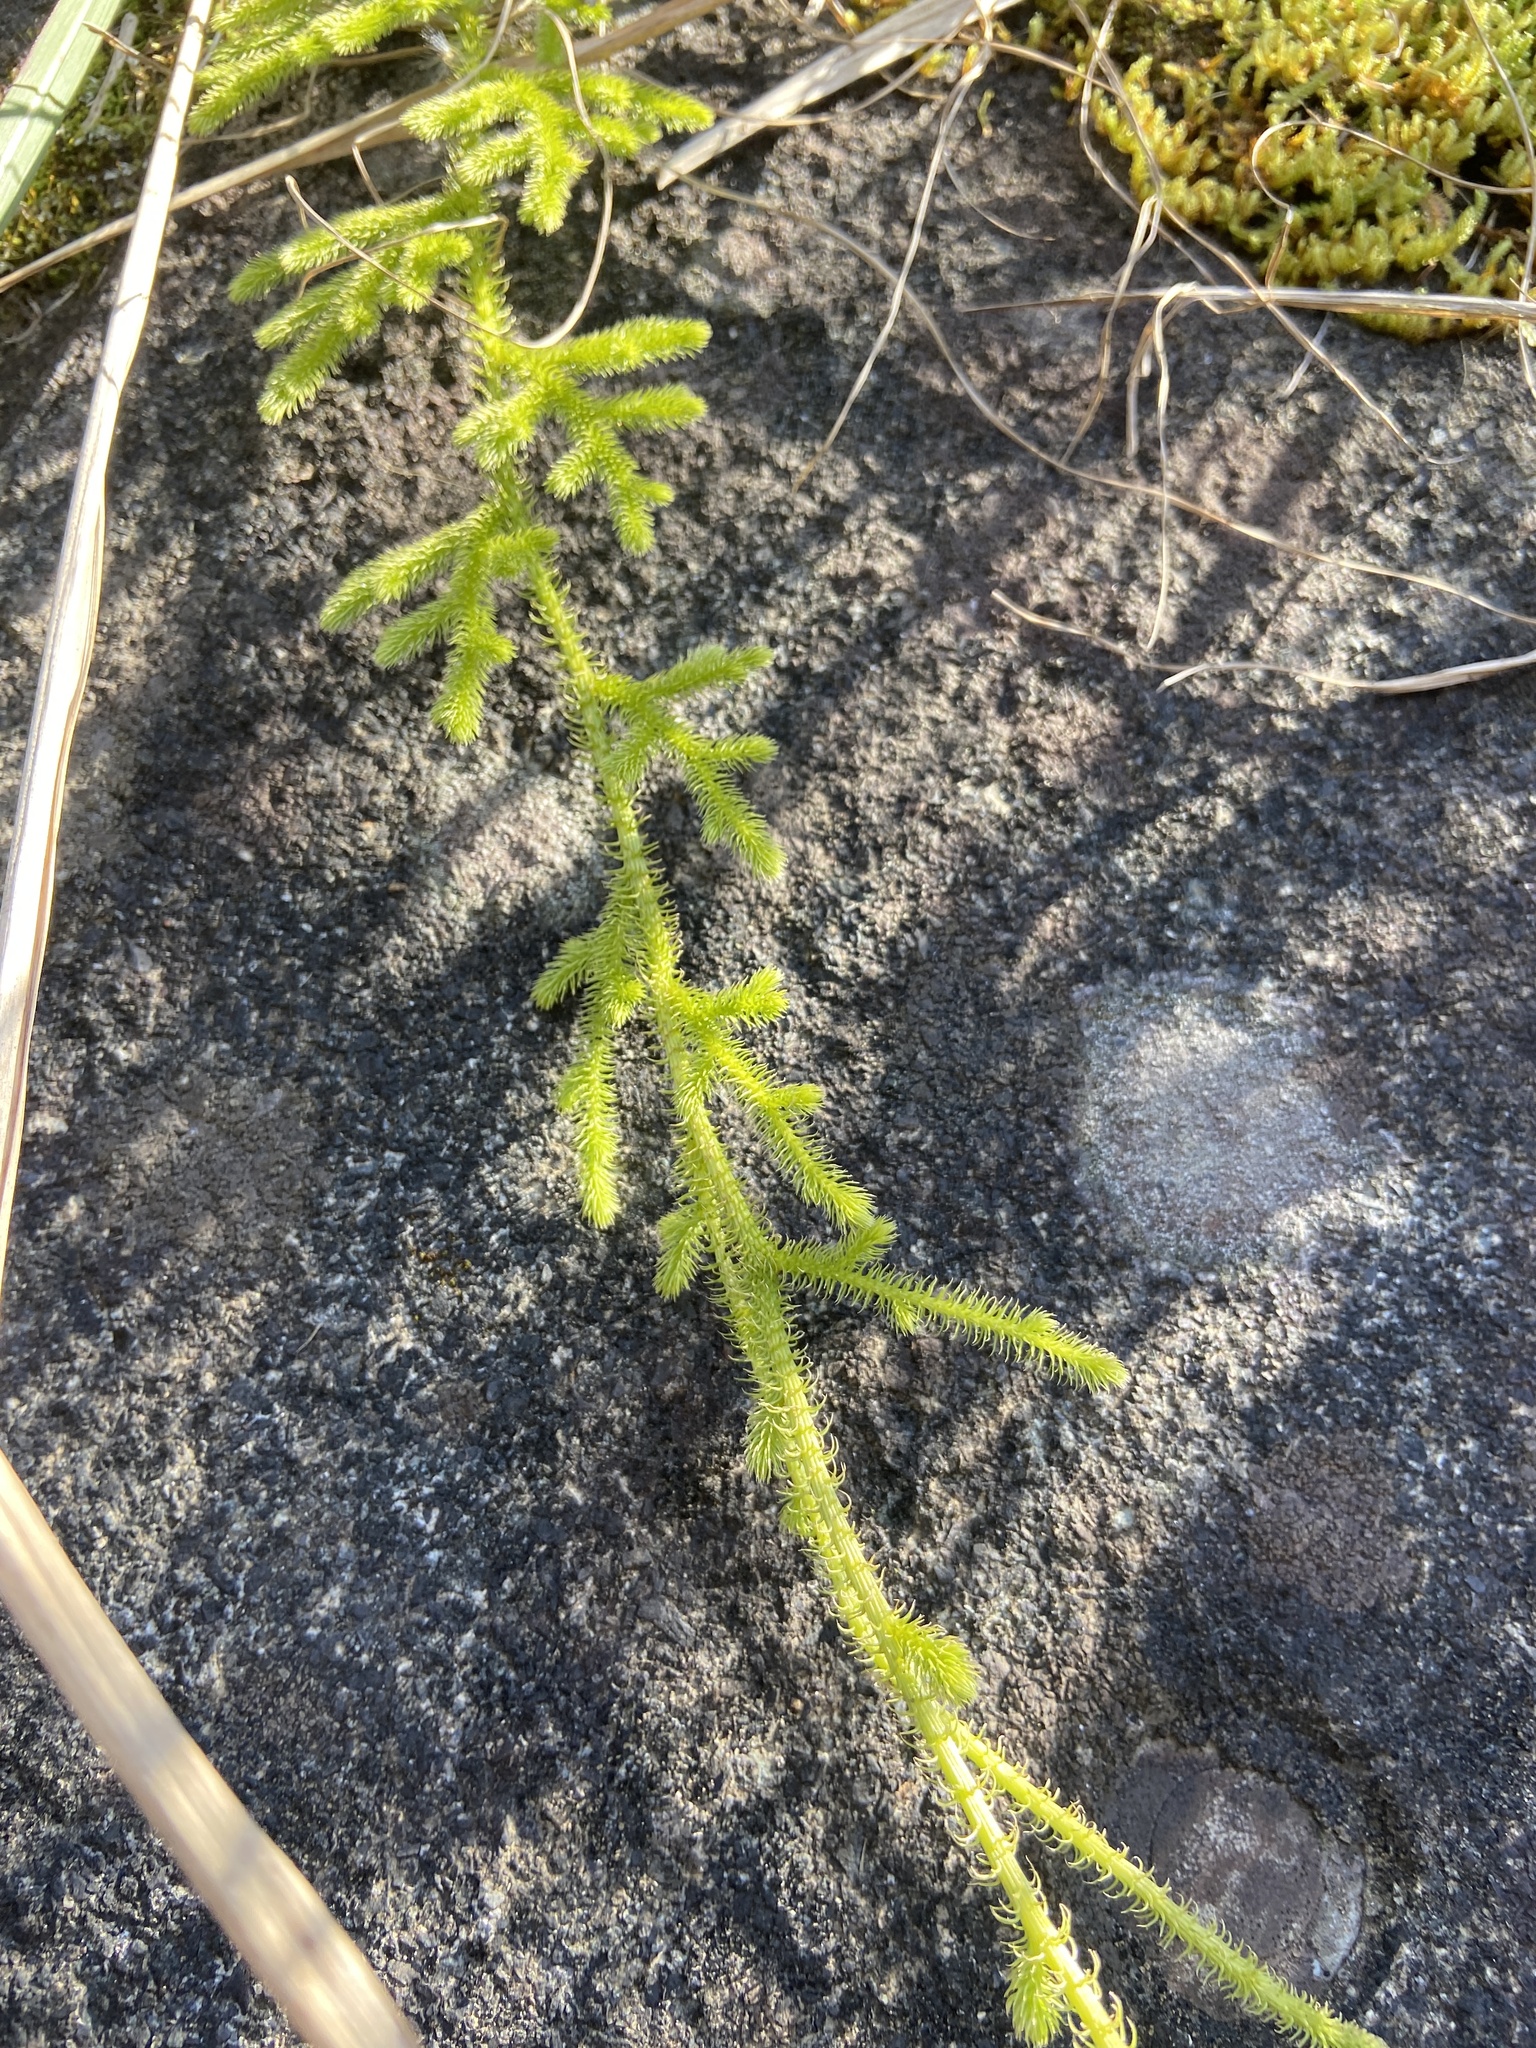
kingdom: Plantae
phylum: Tracheophyta
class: Lycopodiopsida
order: Lycopodiales
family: Lycopodiaceae
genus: Palhinhaea
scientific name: Palhinhaea cernua
